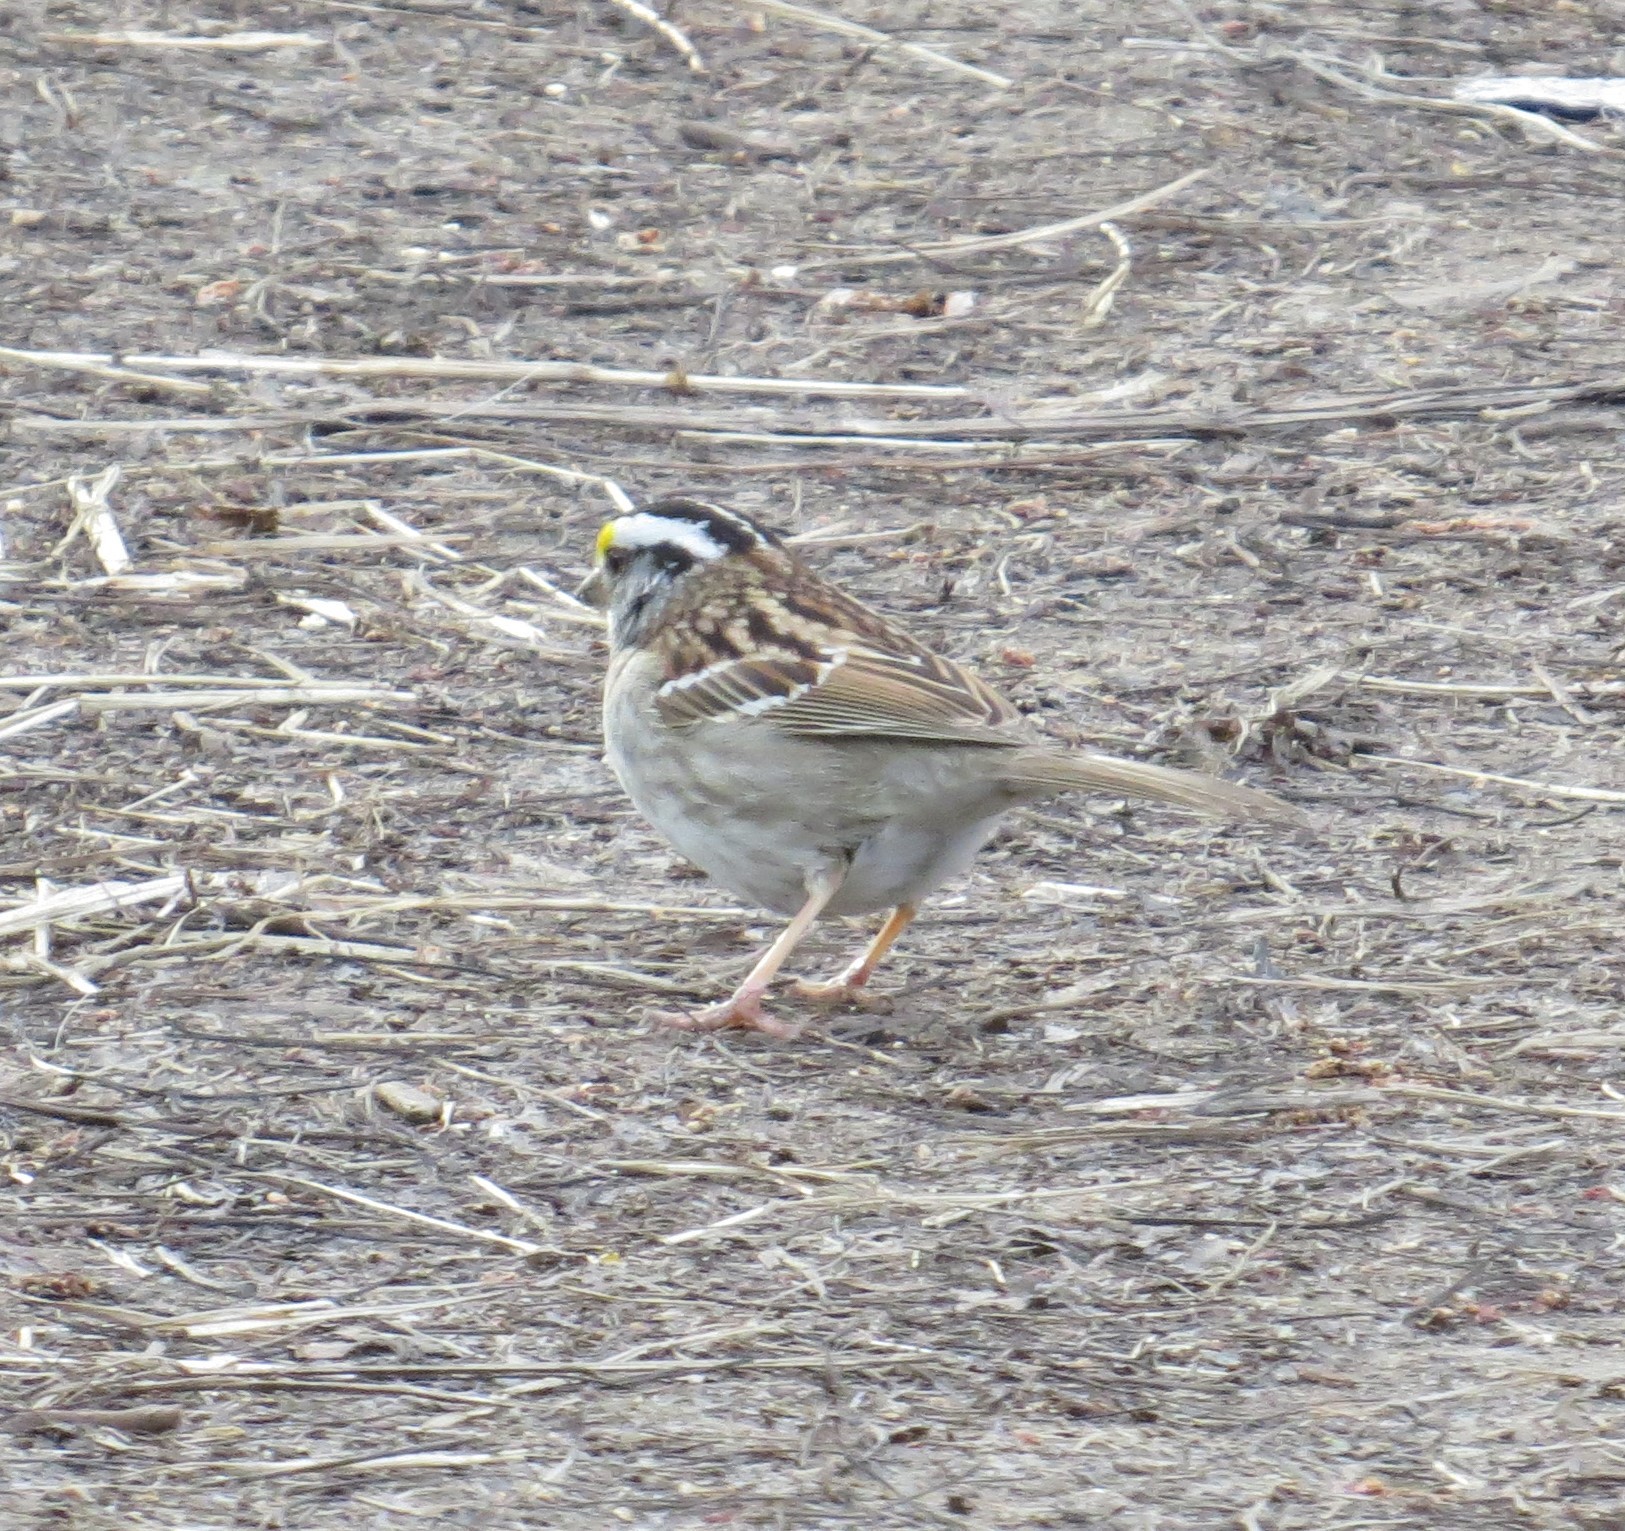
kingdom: Animalia
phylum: Chordata
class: Aves
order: Passeriformes
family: Passerellidae
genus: Zonotrichia
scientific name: Zonotrichia albicollis
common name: White-throated sparrow
